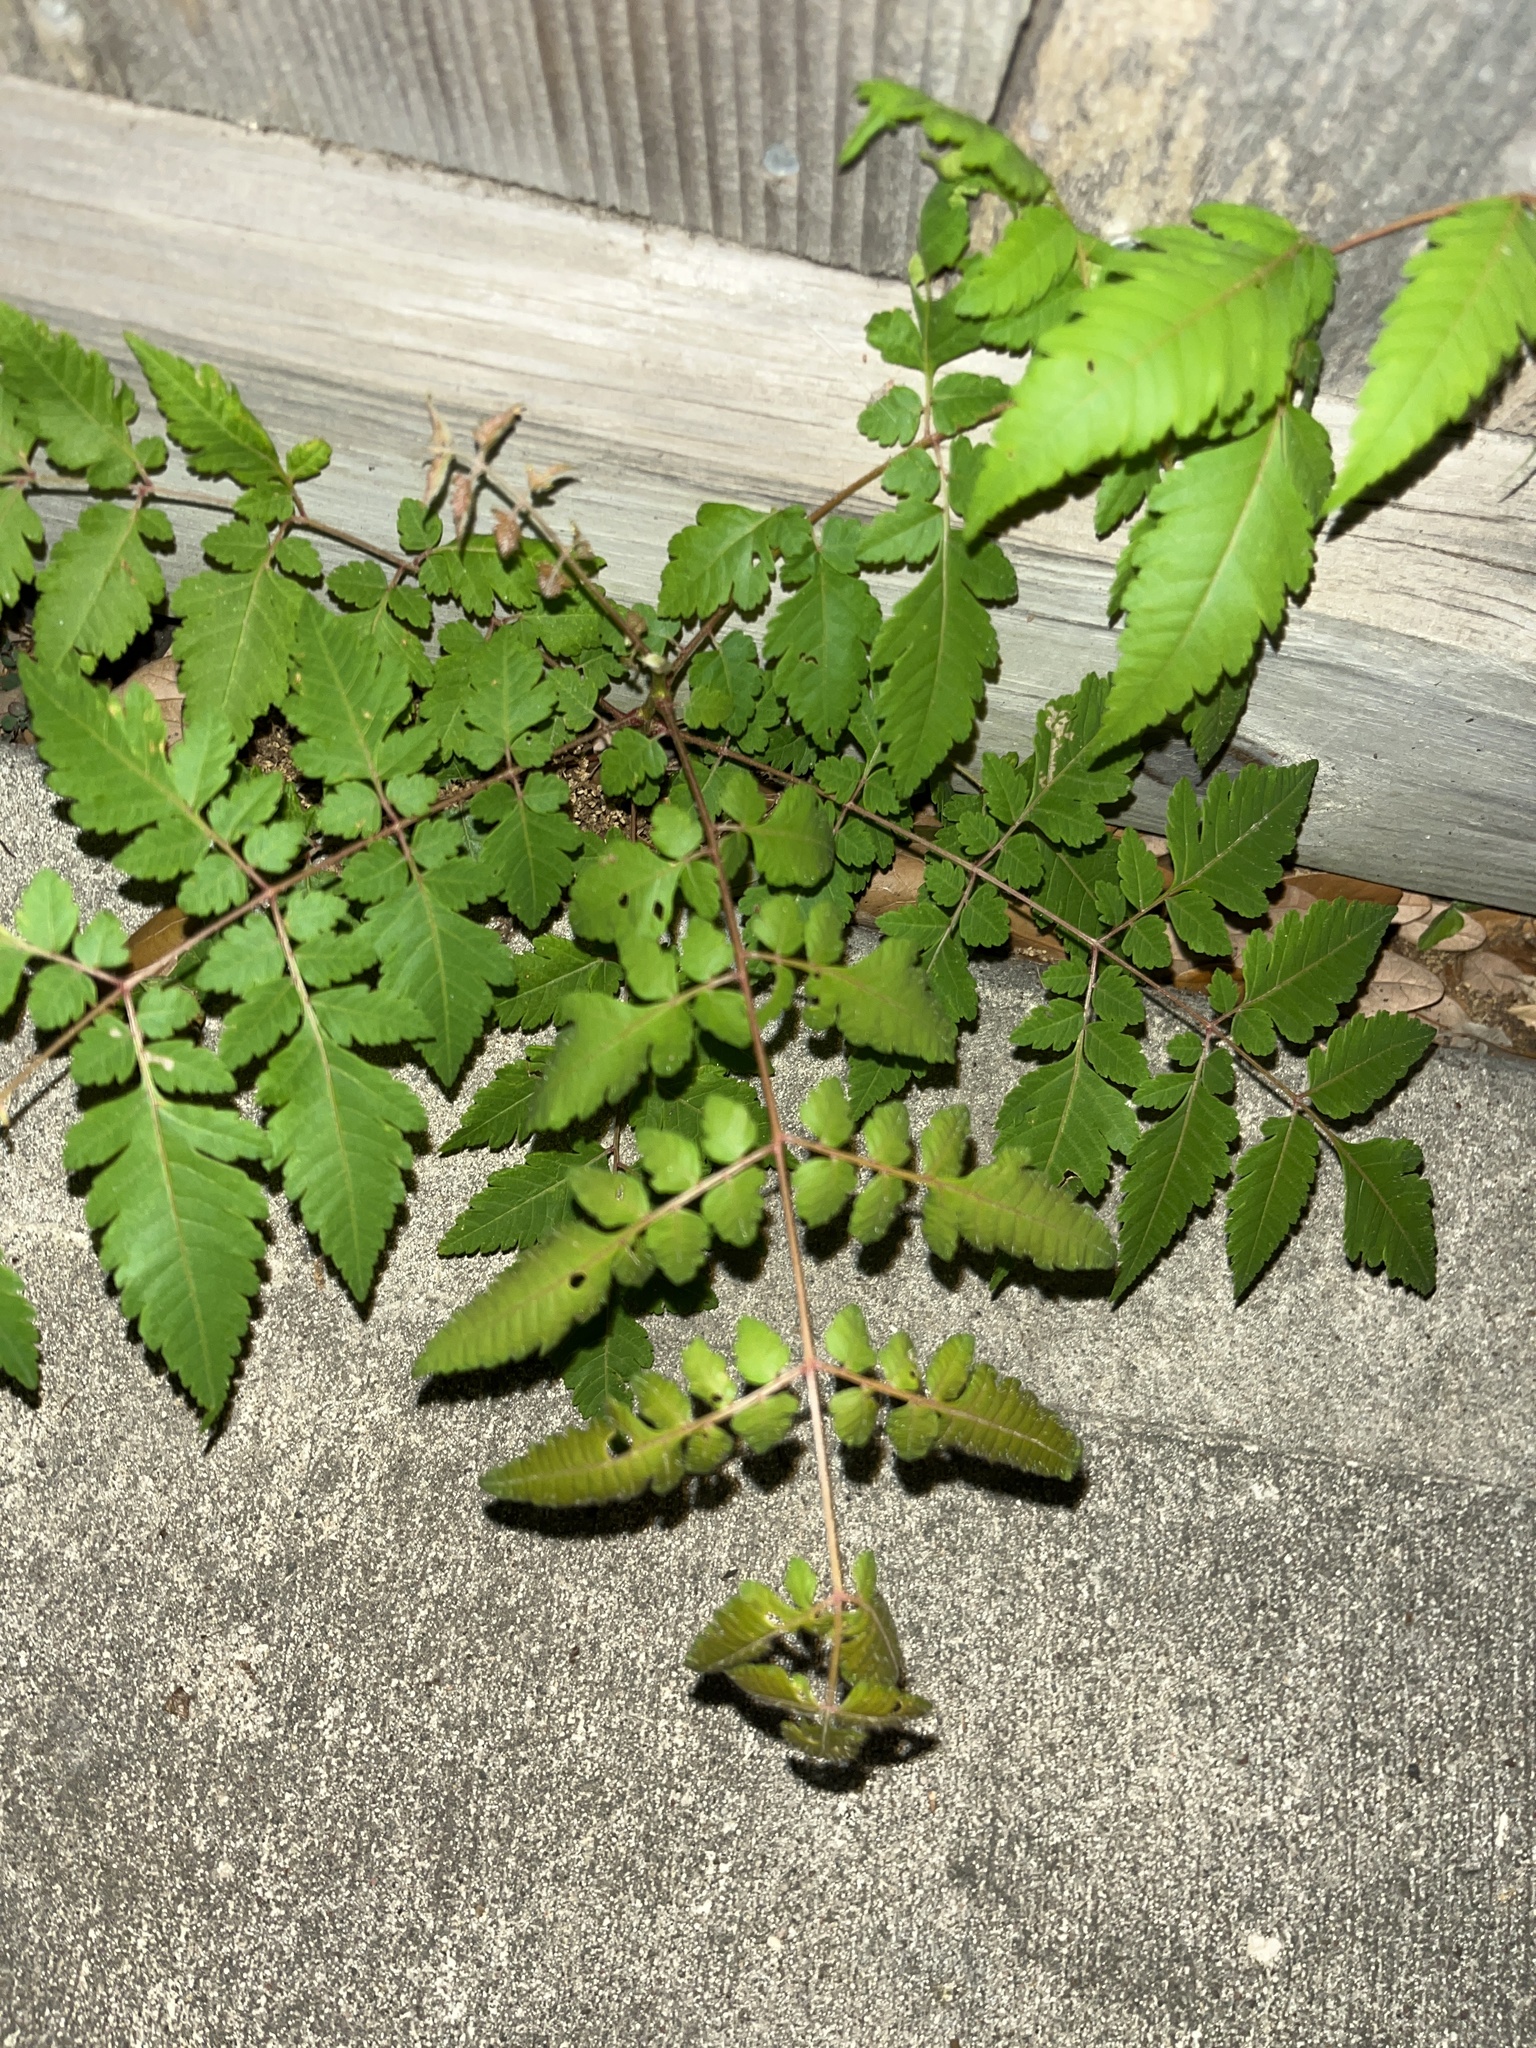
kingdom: Plantae
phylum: Tracheophyta
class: Magnoliopsida
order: Sapindales
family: Meliaceae
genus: Melia
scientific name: Melia azedarach
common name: Chinaberrytree
